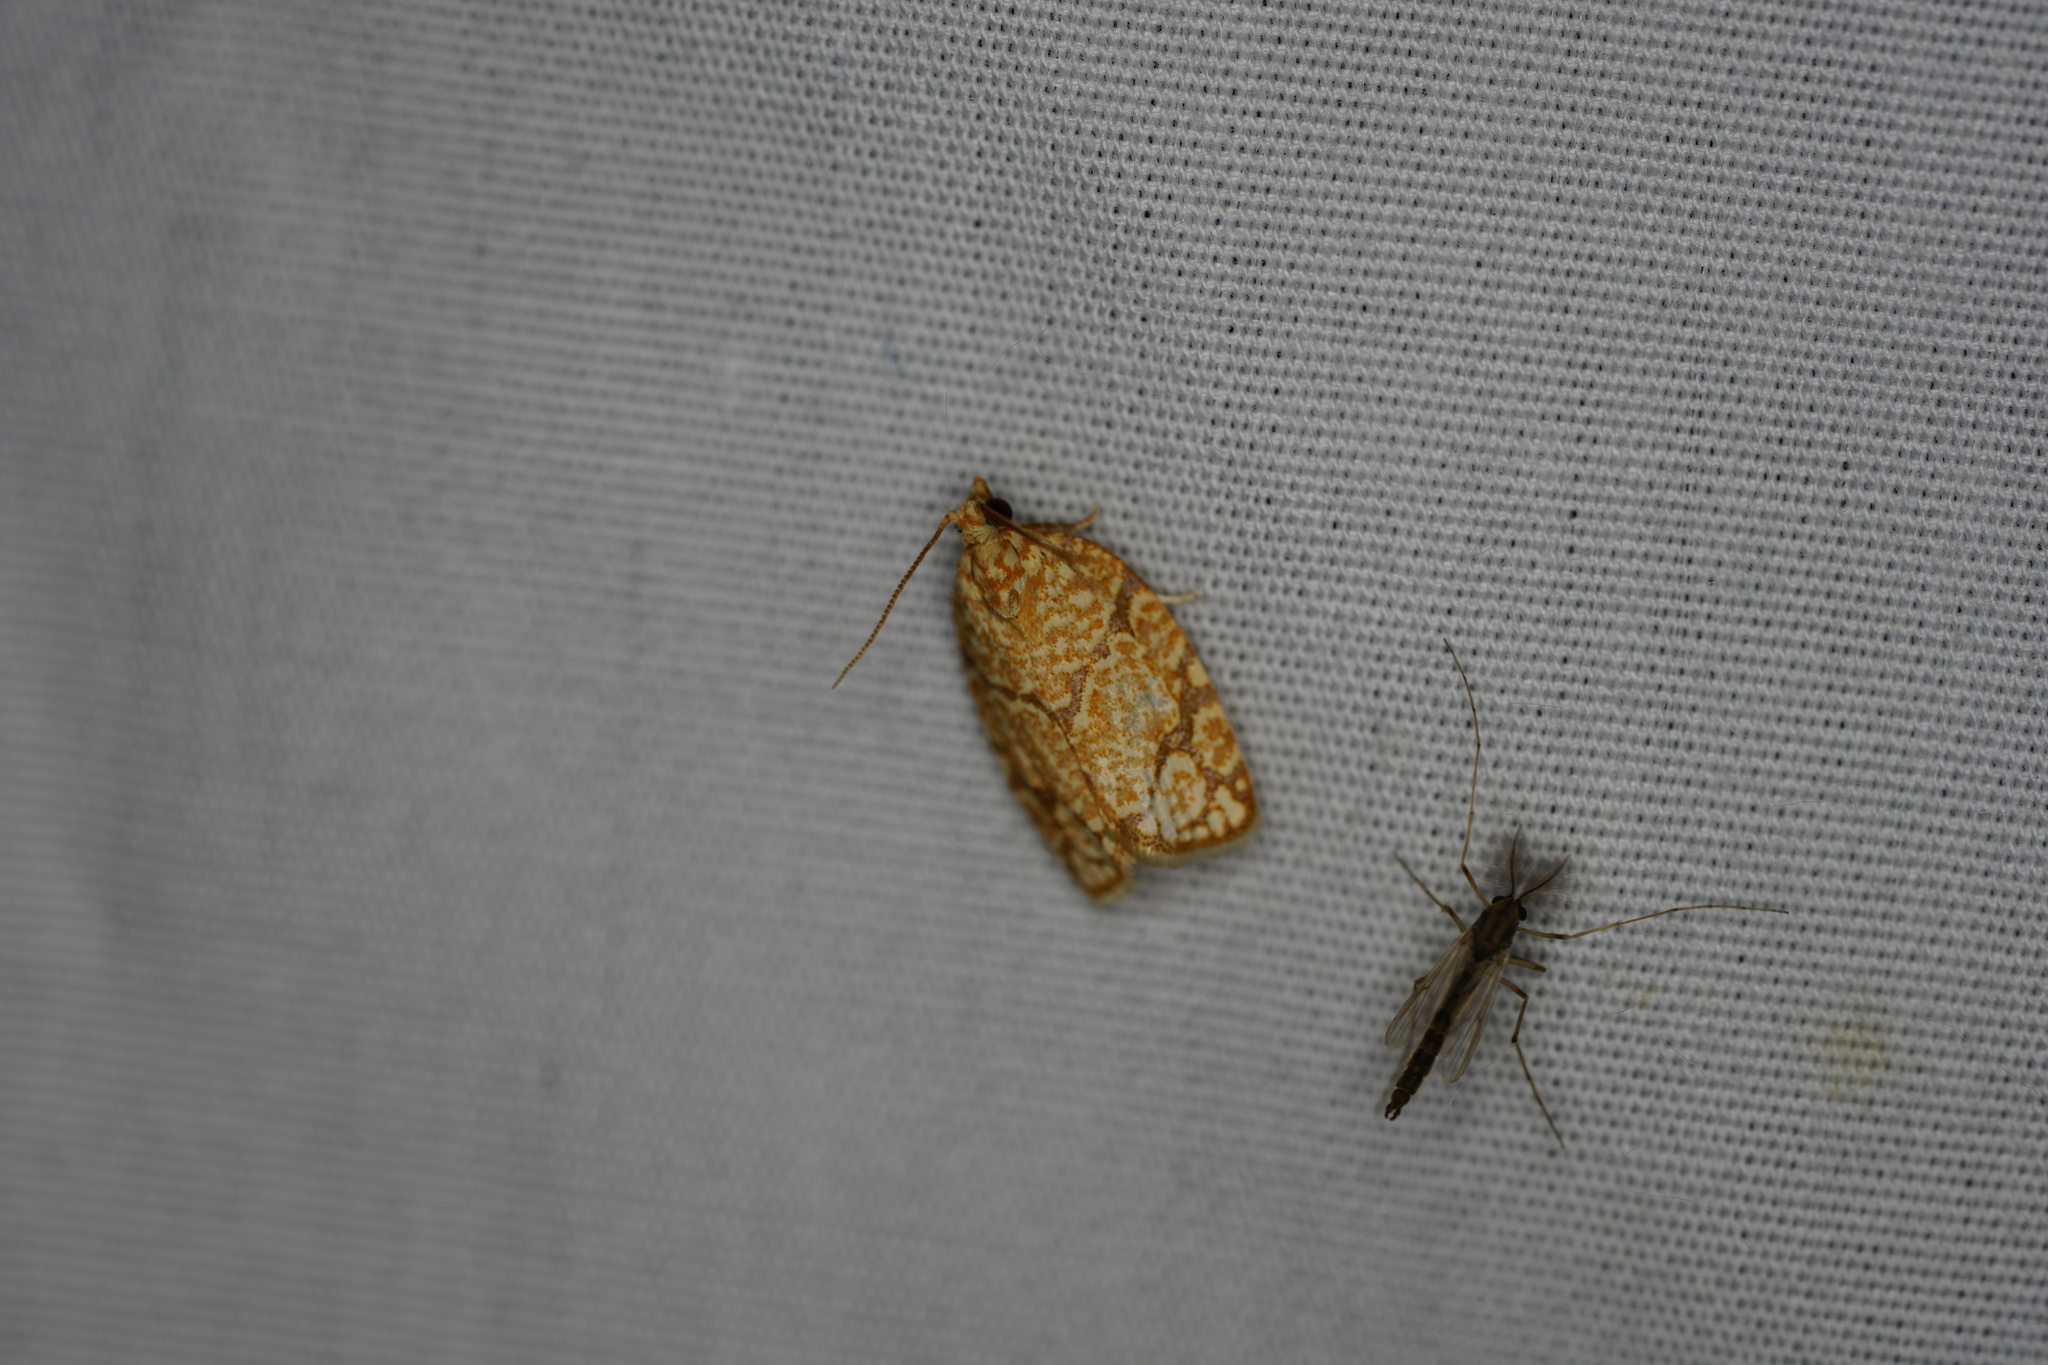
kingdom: Animalia
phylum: Arthropoda
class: Insecta
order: Lepidoptera
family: Tortricidae
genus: Argyrotaenia
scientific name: Argyrotaenia quercifoliana
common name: Yellow-winged oak leafroller moth
